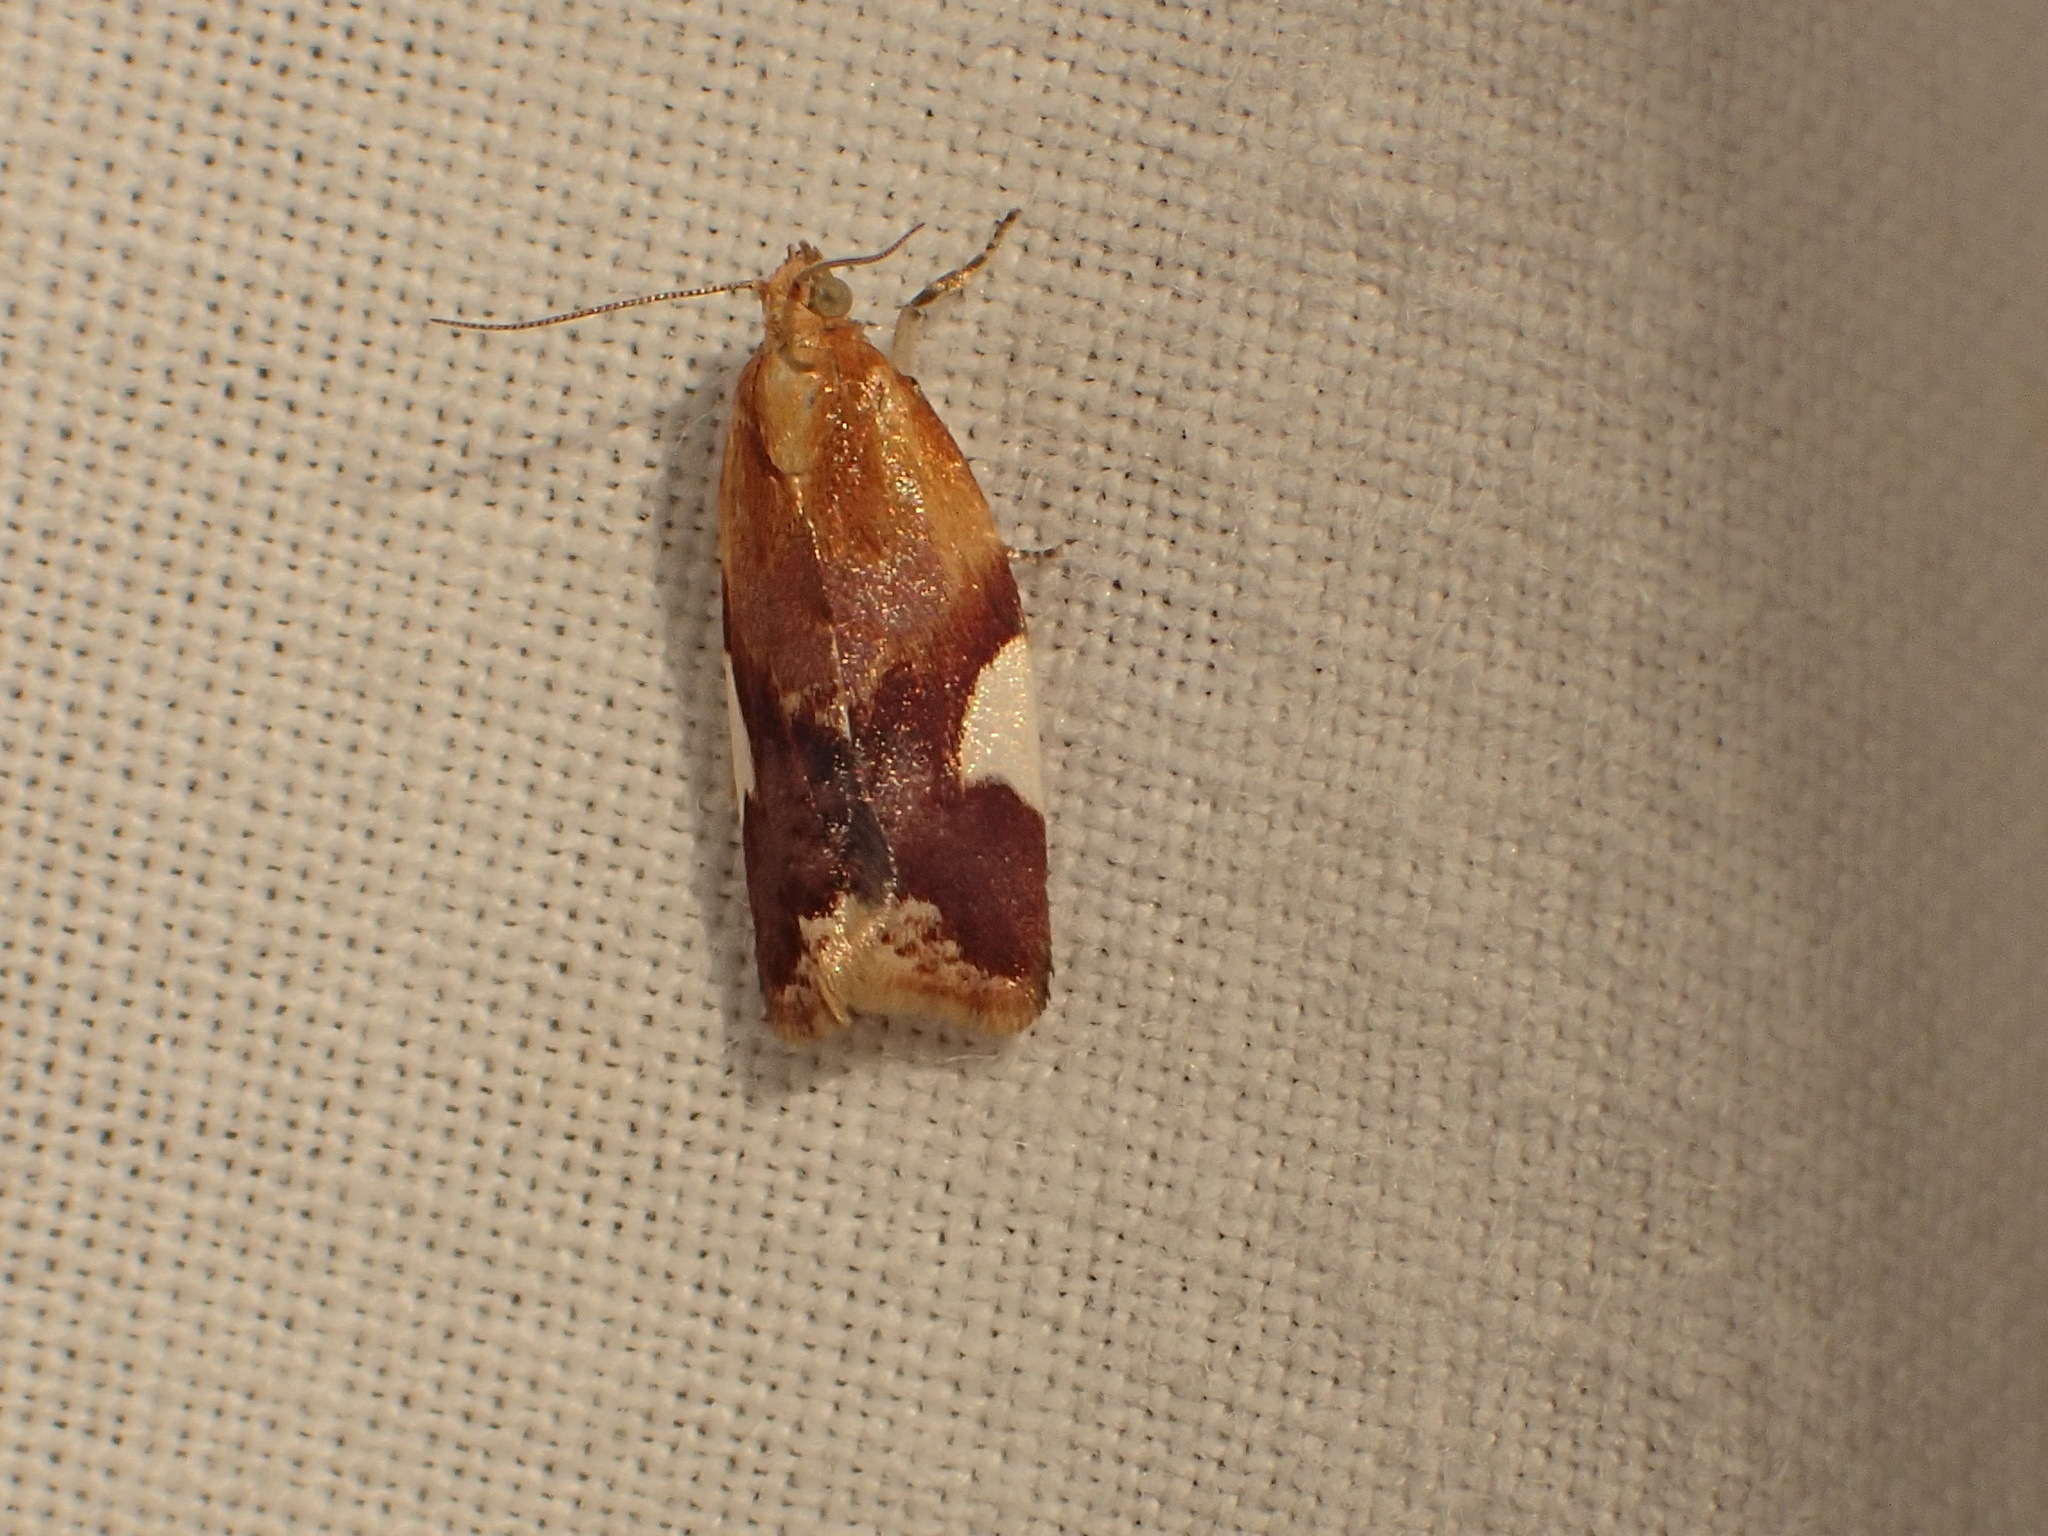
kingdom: Animalia
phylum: Arthropoda
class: Insecta
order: Lepidoptera
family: Tortricidae
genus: Clepsis
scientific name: Clepsis persicana
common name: White triangle tortrix
